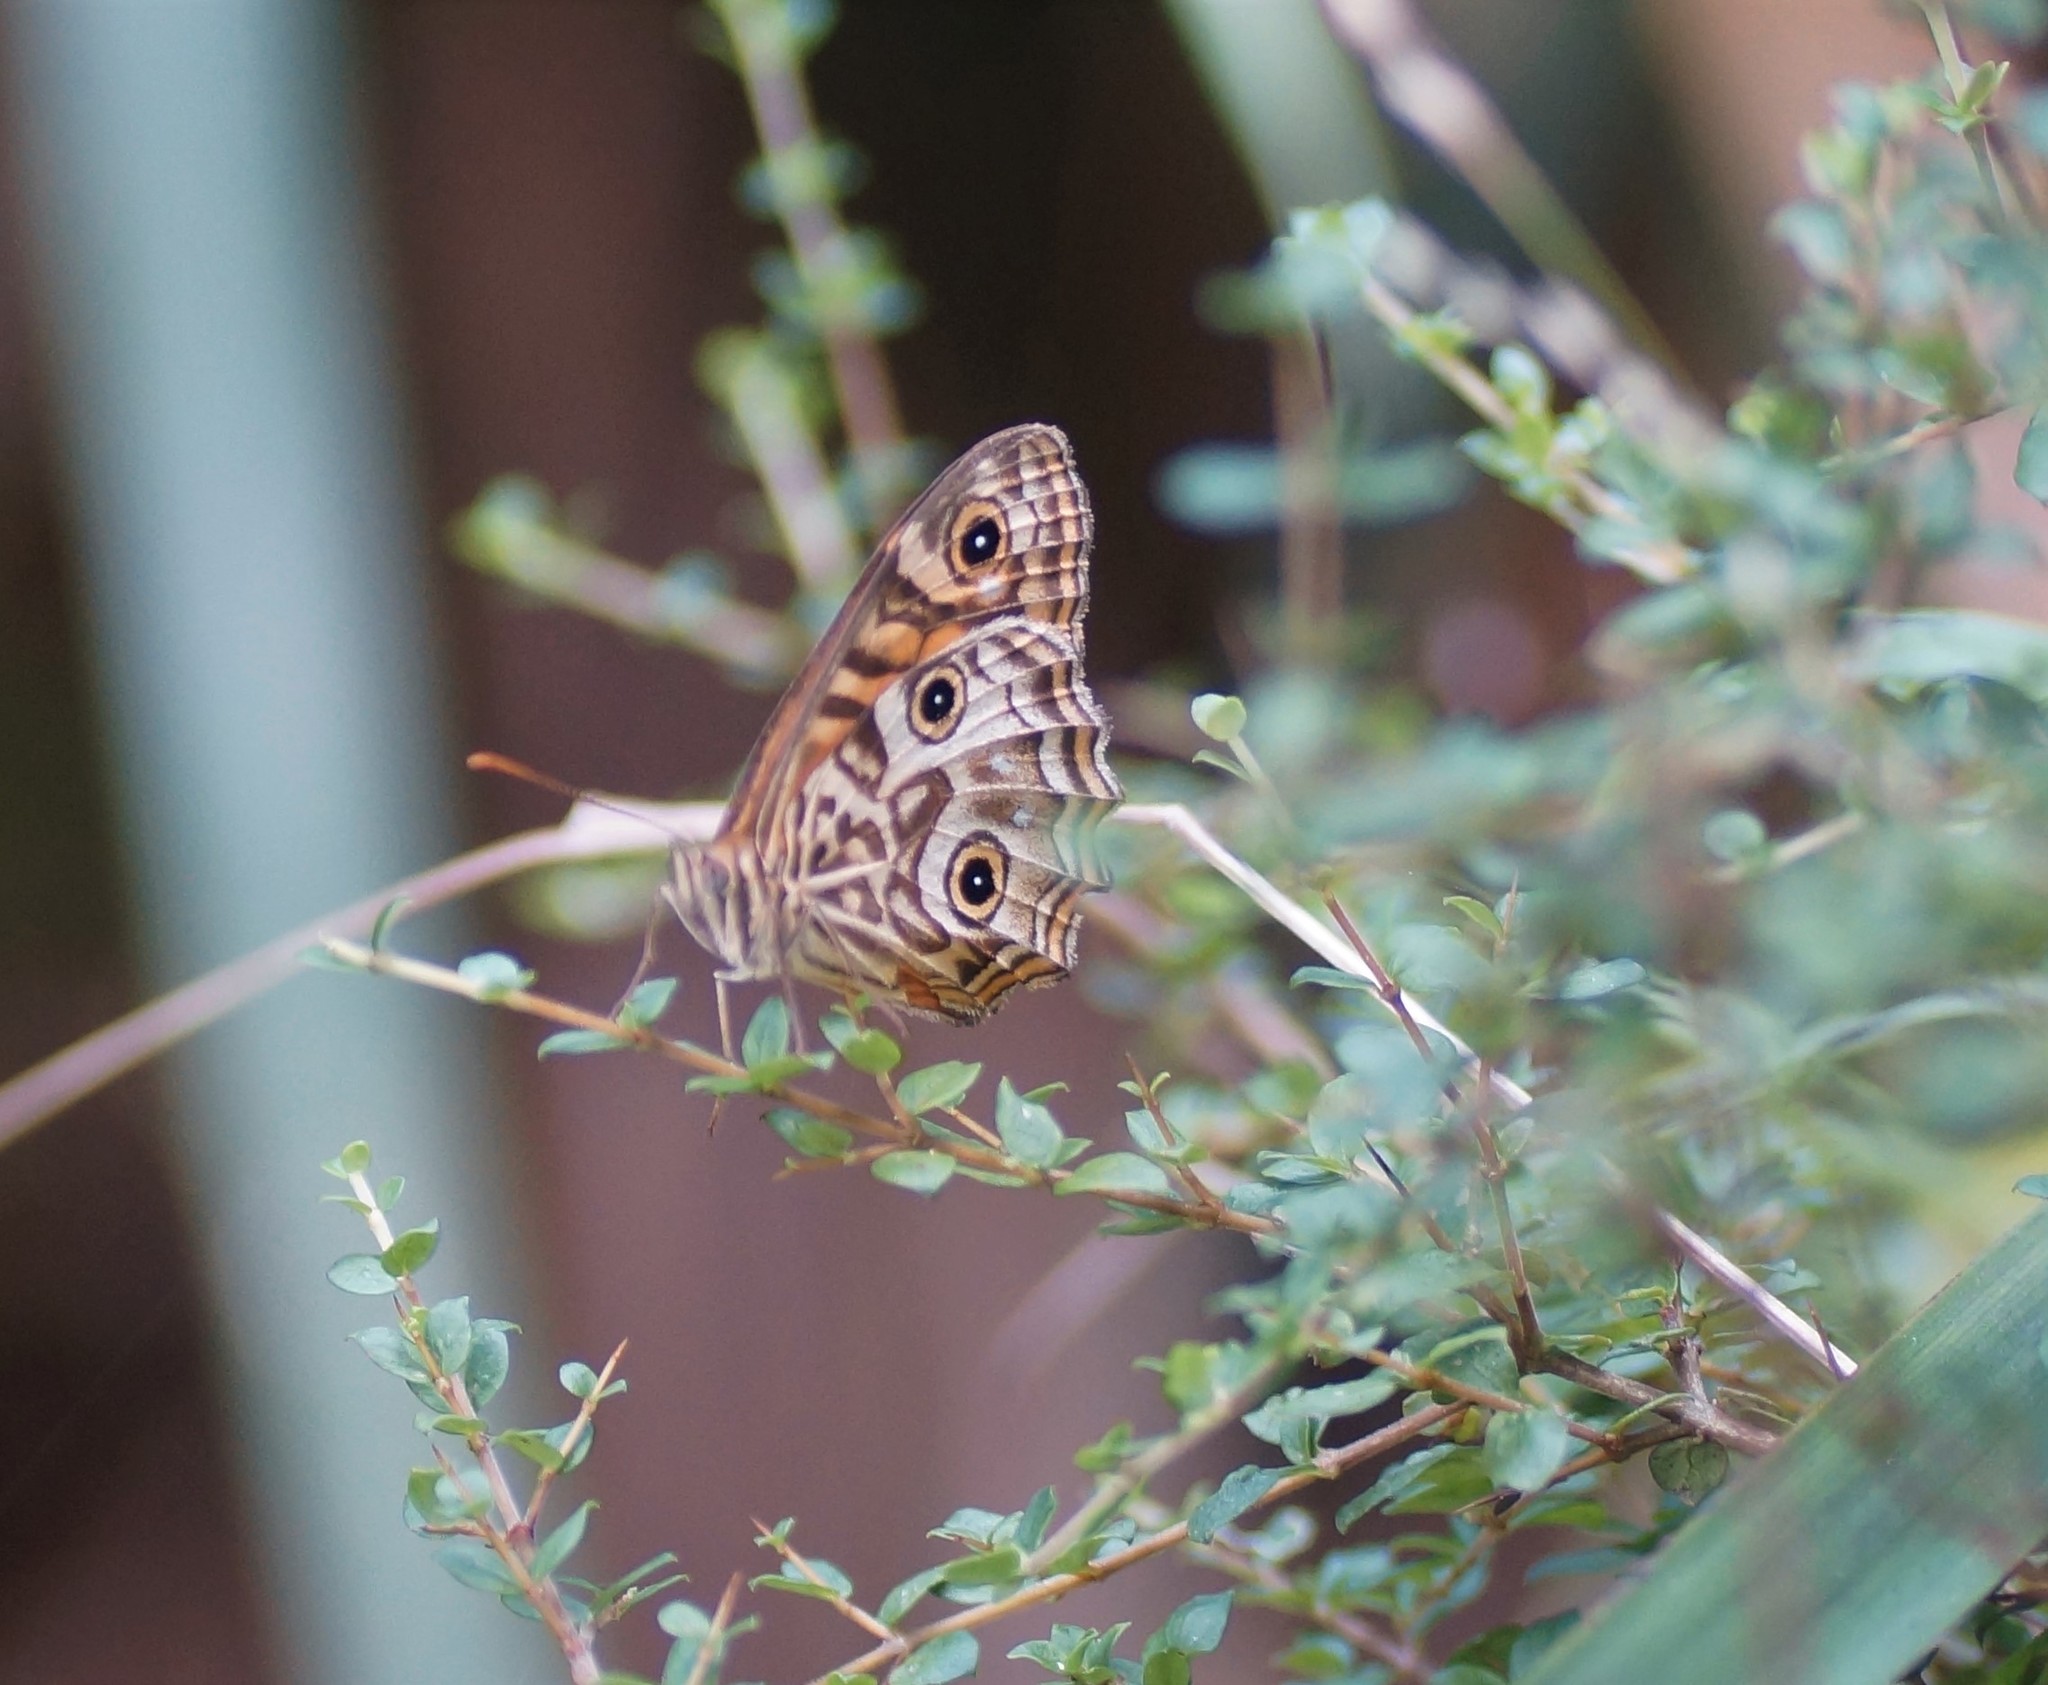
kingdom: Animalia
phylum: Arthropoda
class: Insecta
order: Lepidoptera
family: Nymphalidae
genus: Geitoneura
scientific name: Geitoneura acantha
